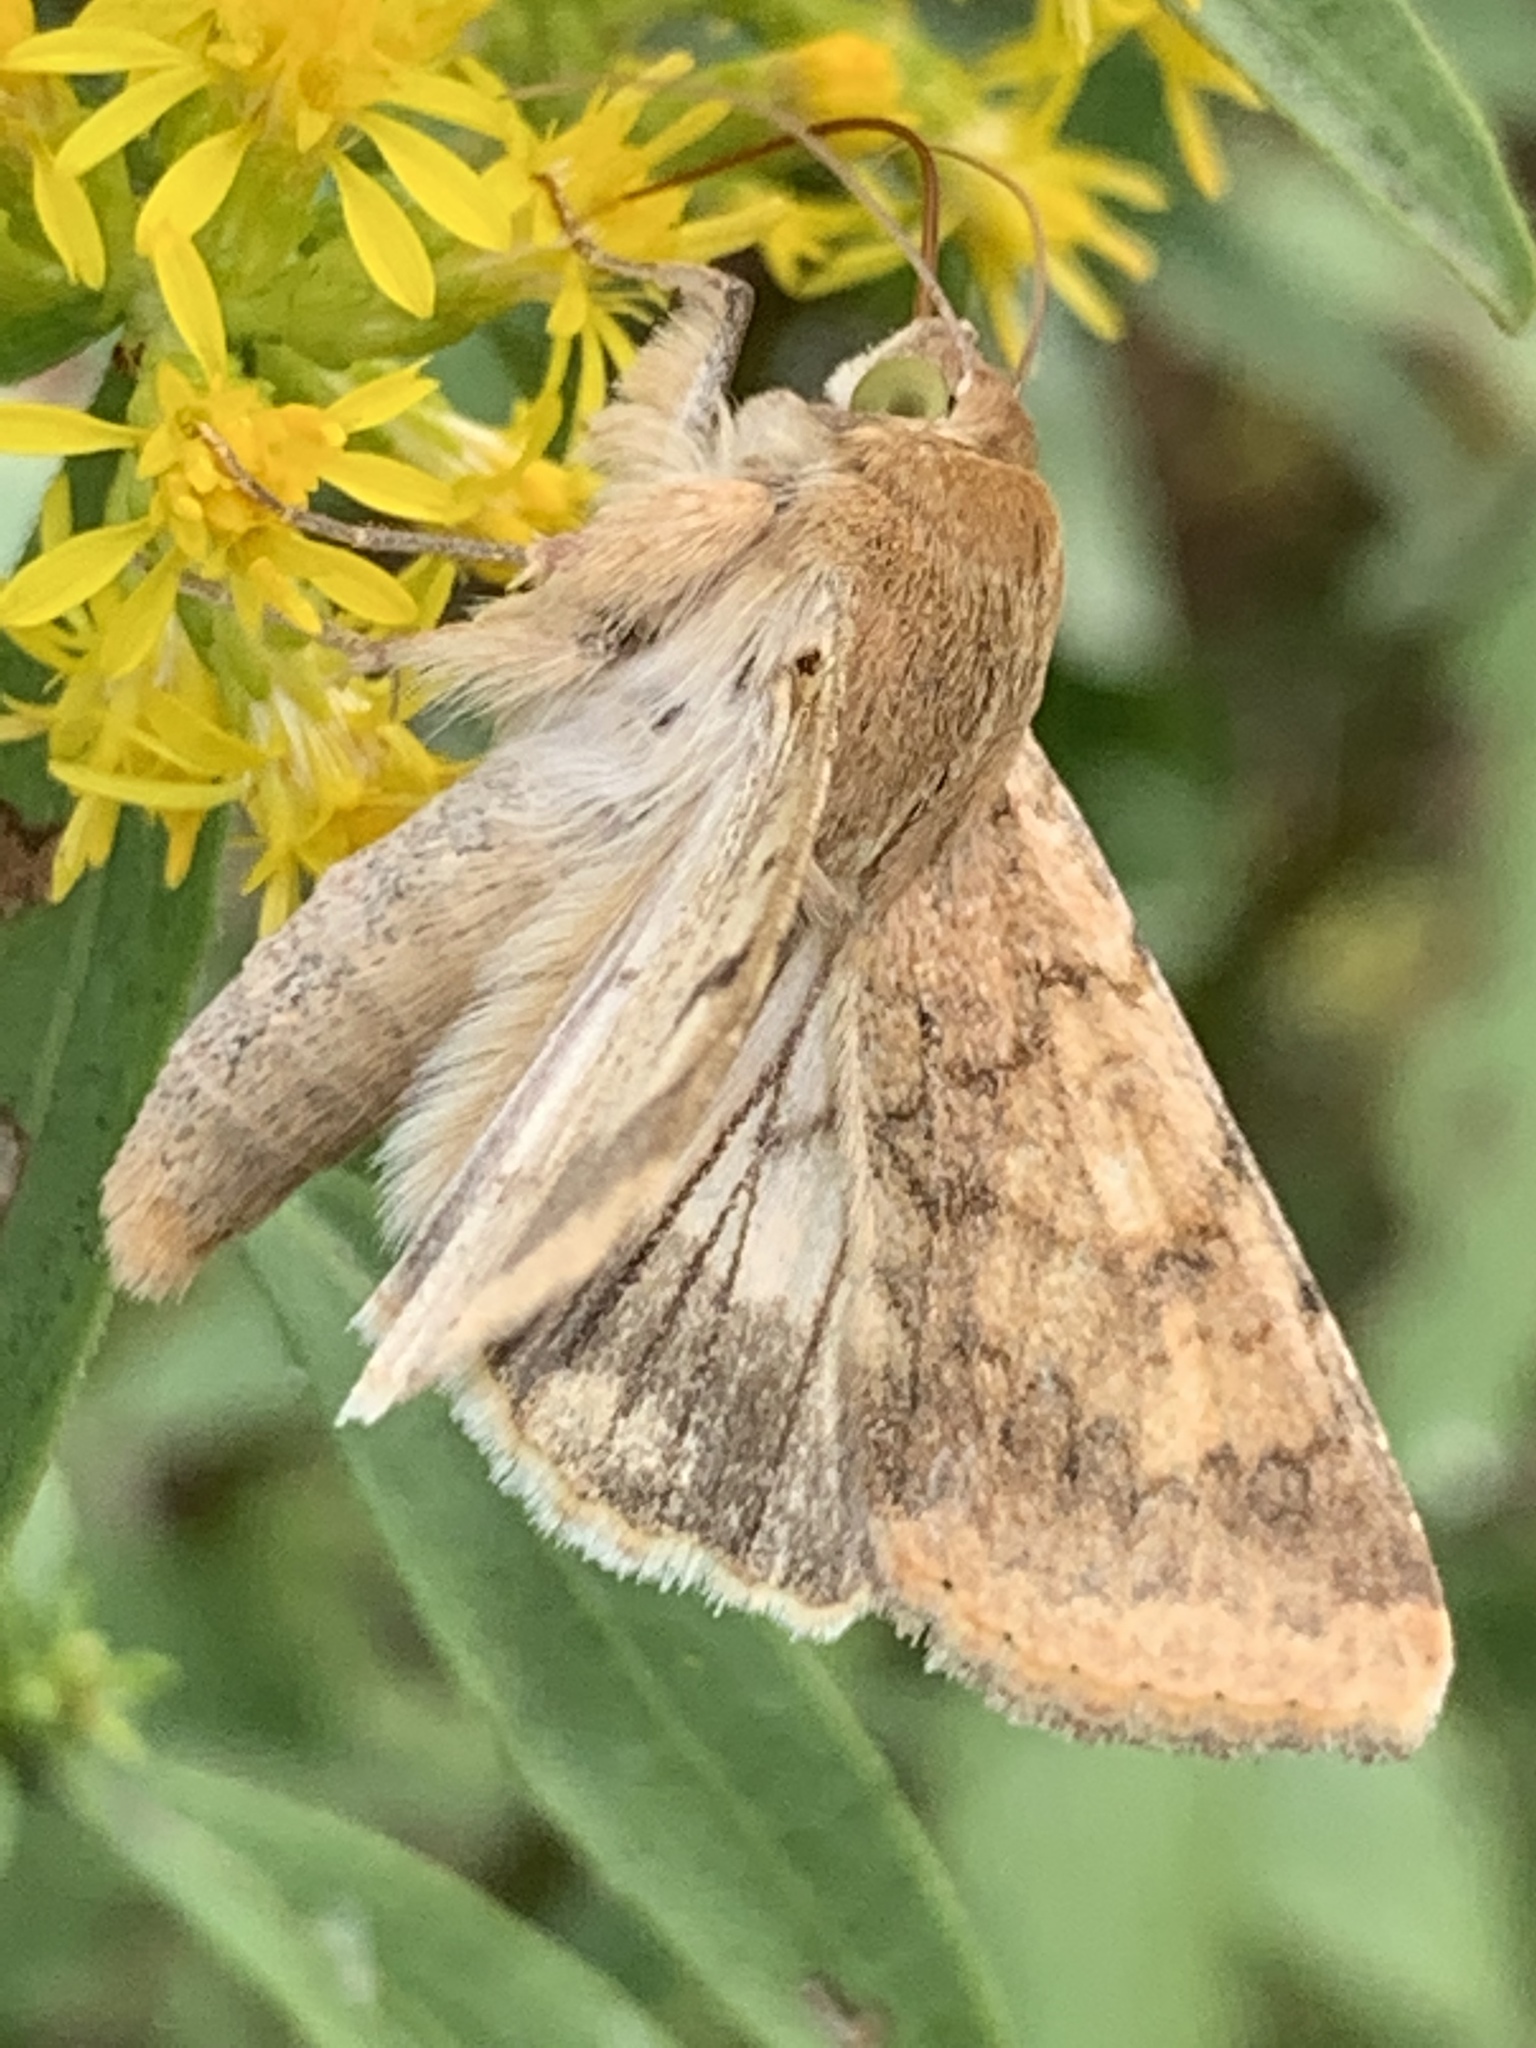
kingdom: Animalia
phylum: Arthropoda
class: Insecta
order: Lepidoptera
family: Noctuidae
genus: Helicoverpa
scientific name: Helicoverpa zea
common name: Bollworm
